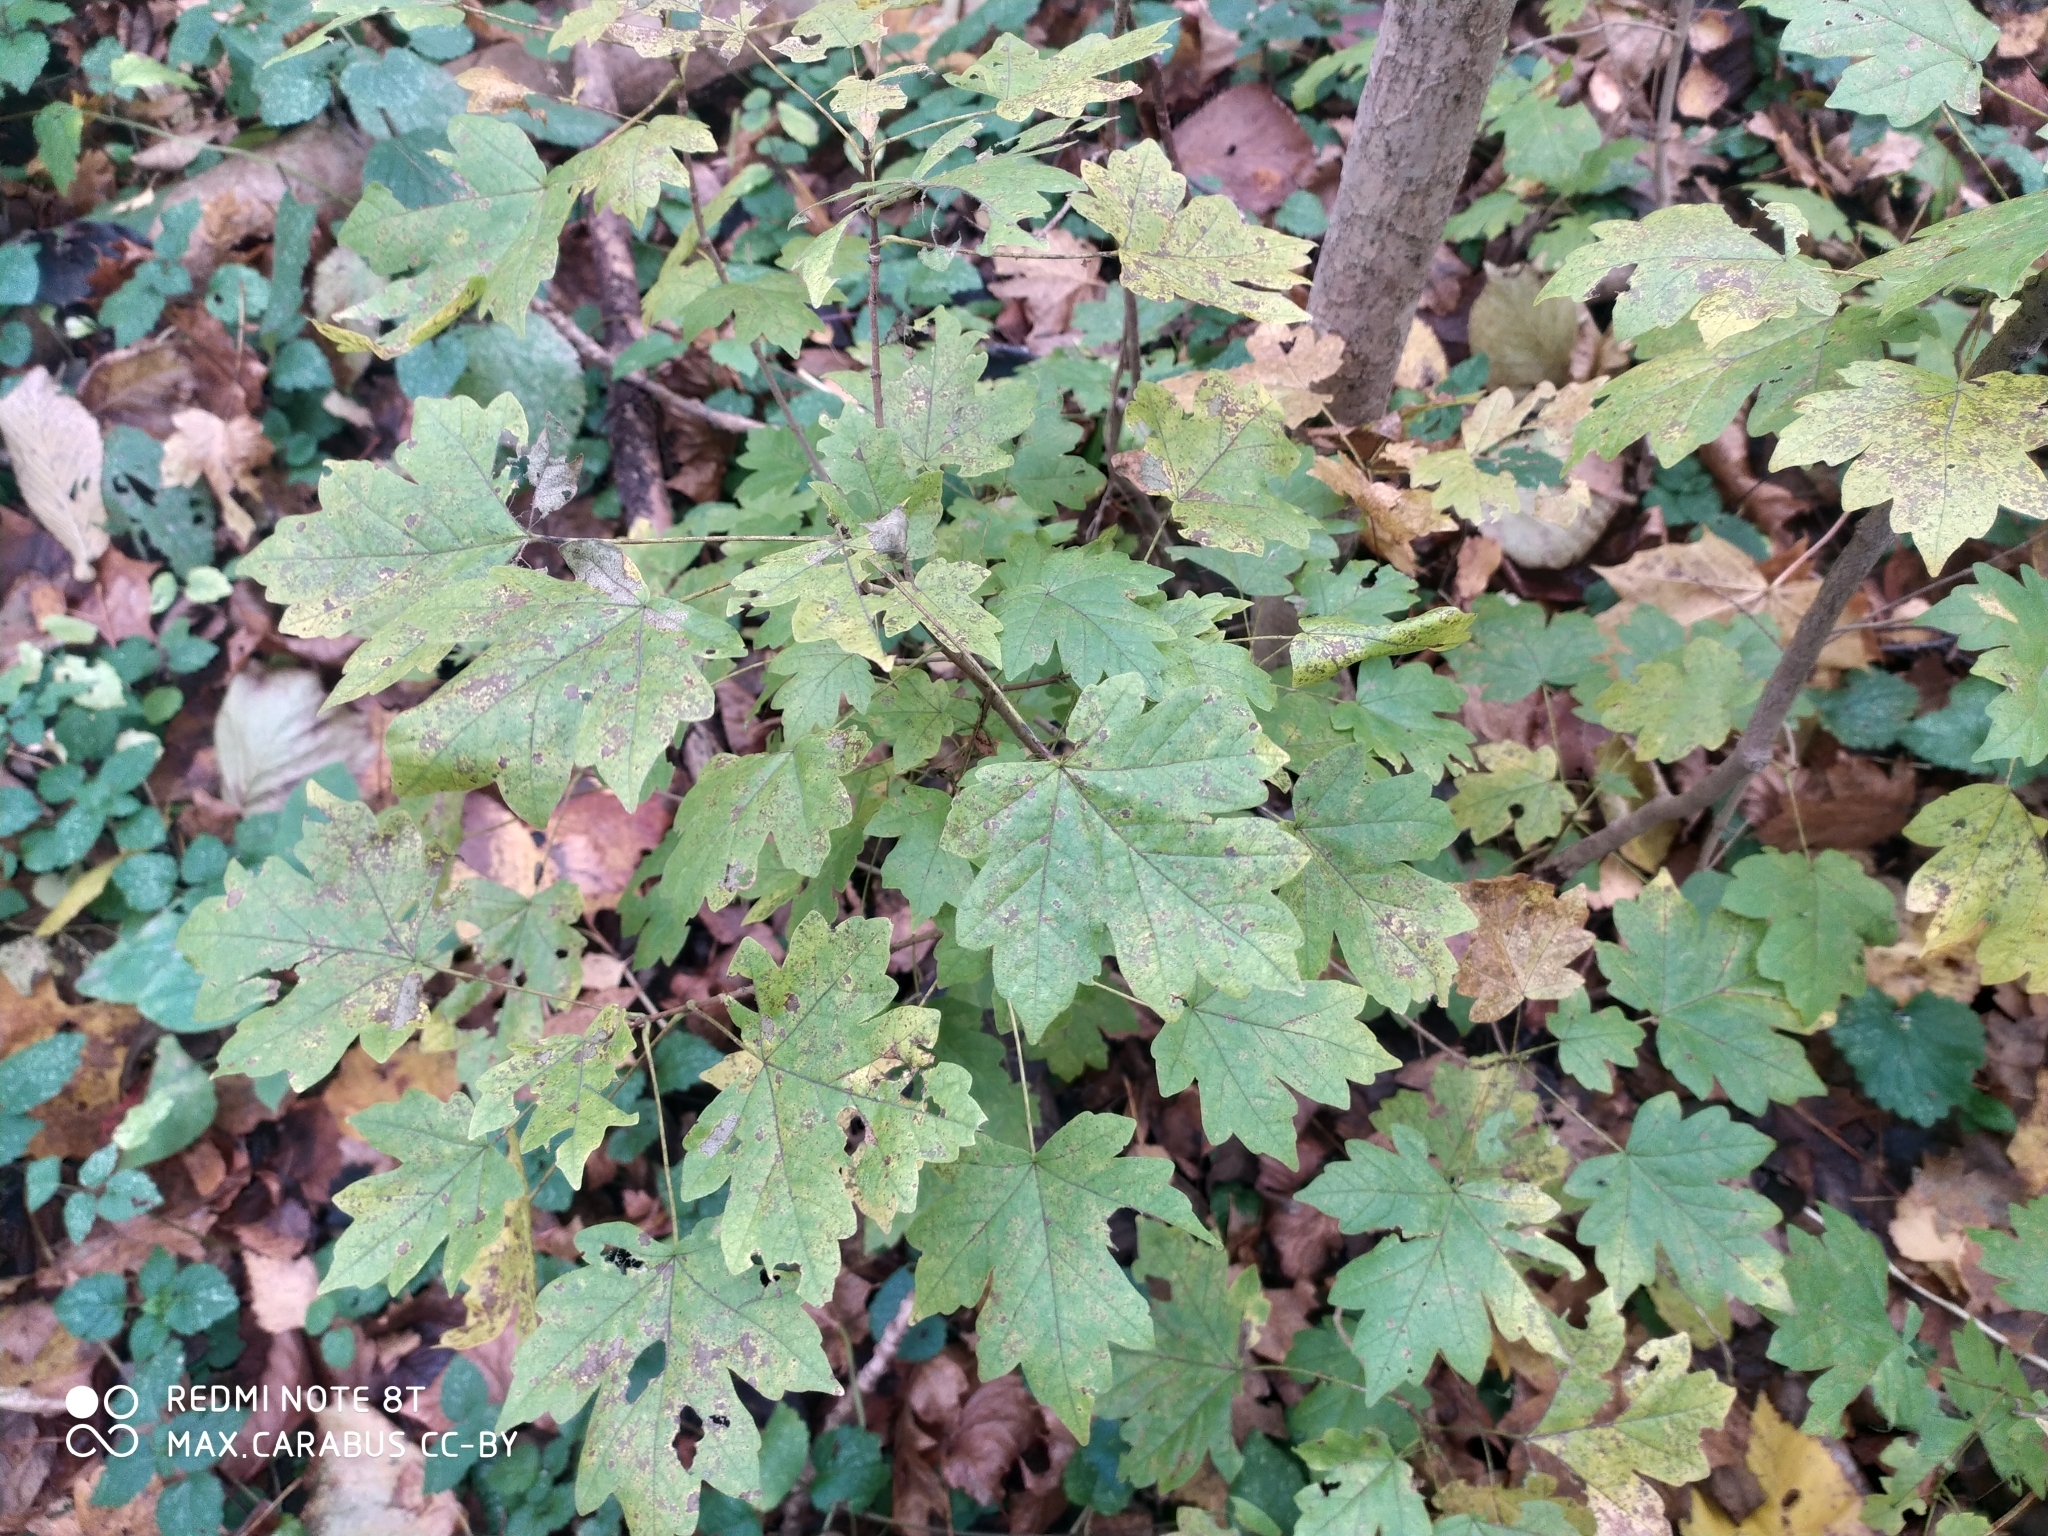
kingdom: Plantae
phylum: Tracheophyta
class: Magnoliopsida
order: Sapindales
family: Sapindaceae
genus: Acer
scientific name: Acer campestre
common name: Field maple
